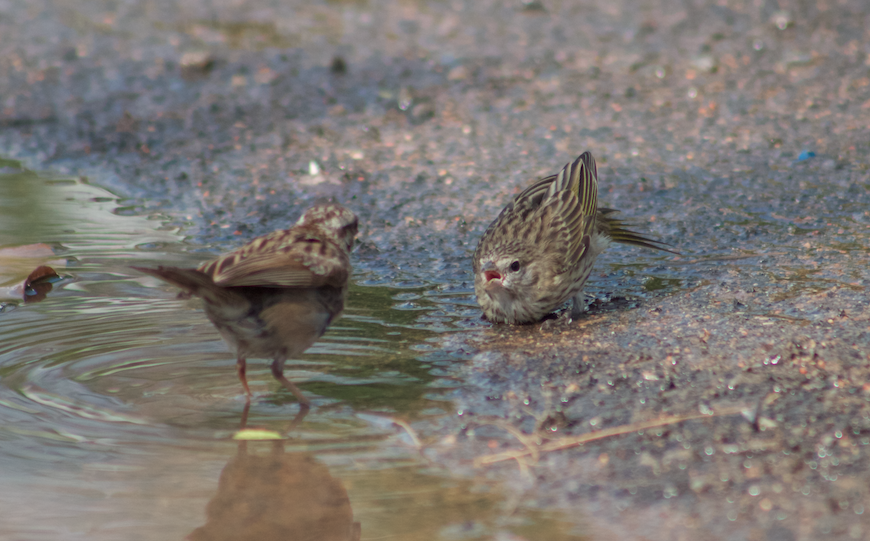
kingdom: Animalia
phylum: Chordata
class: Aves
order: Passeriformes
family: Passerellidae
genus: Zonotrichia
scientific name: Zonotrichia capensis
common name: Rufous-collared sparrow
